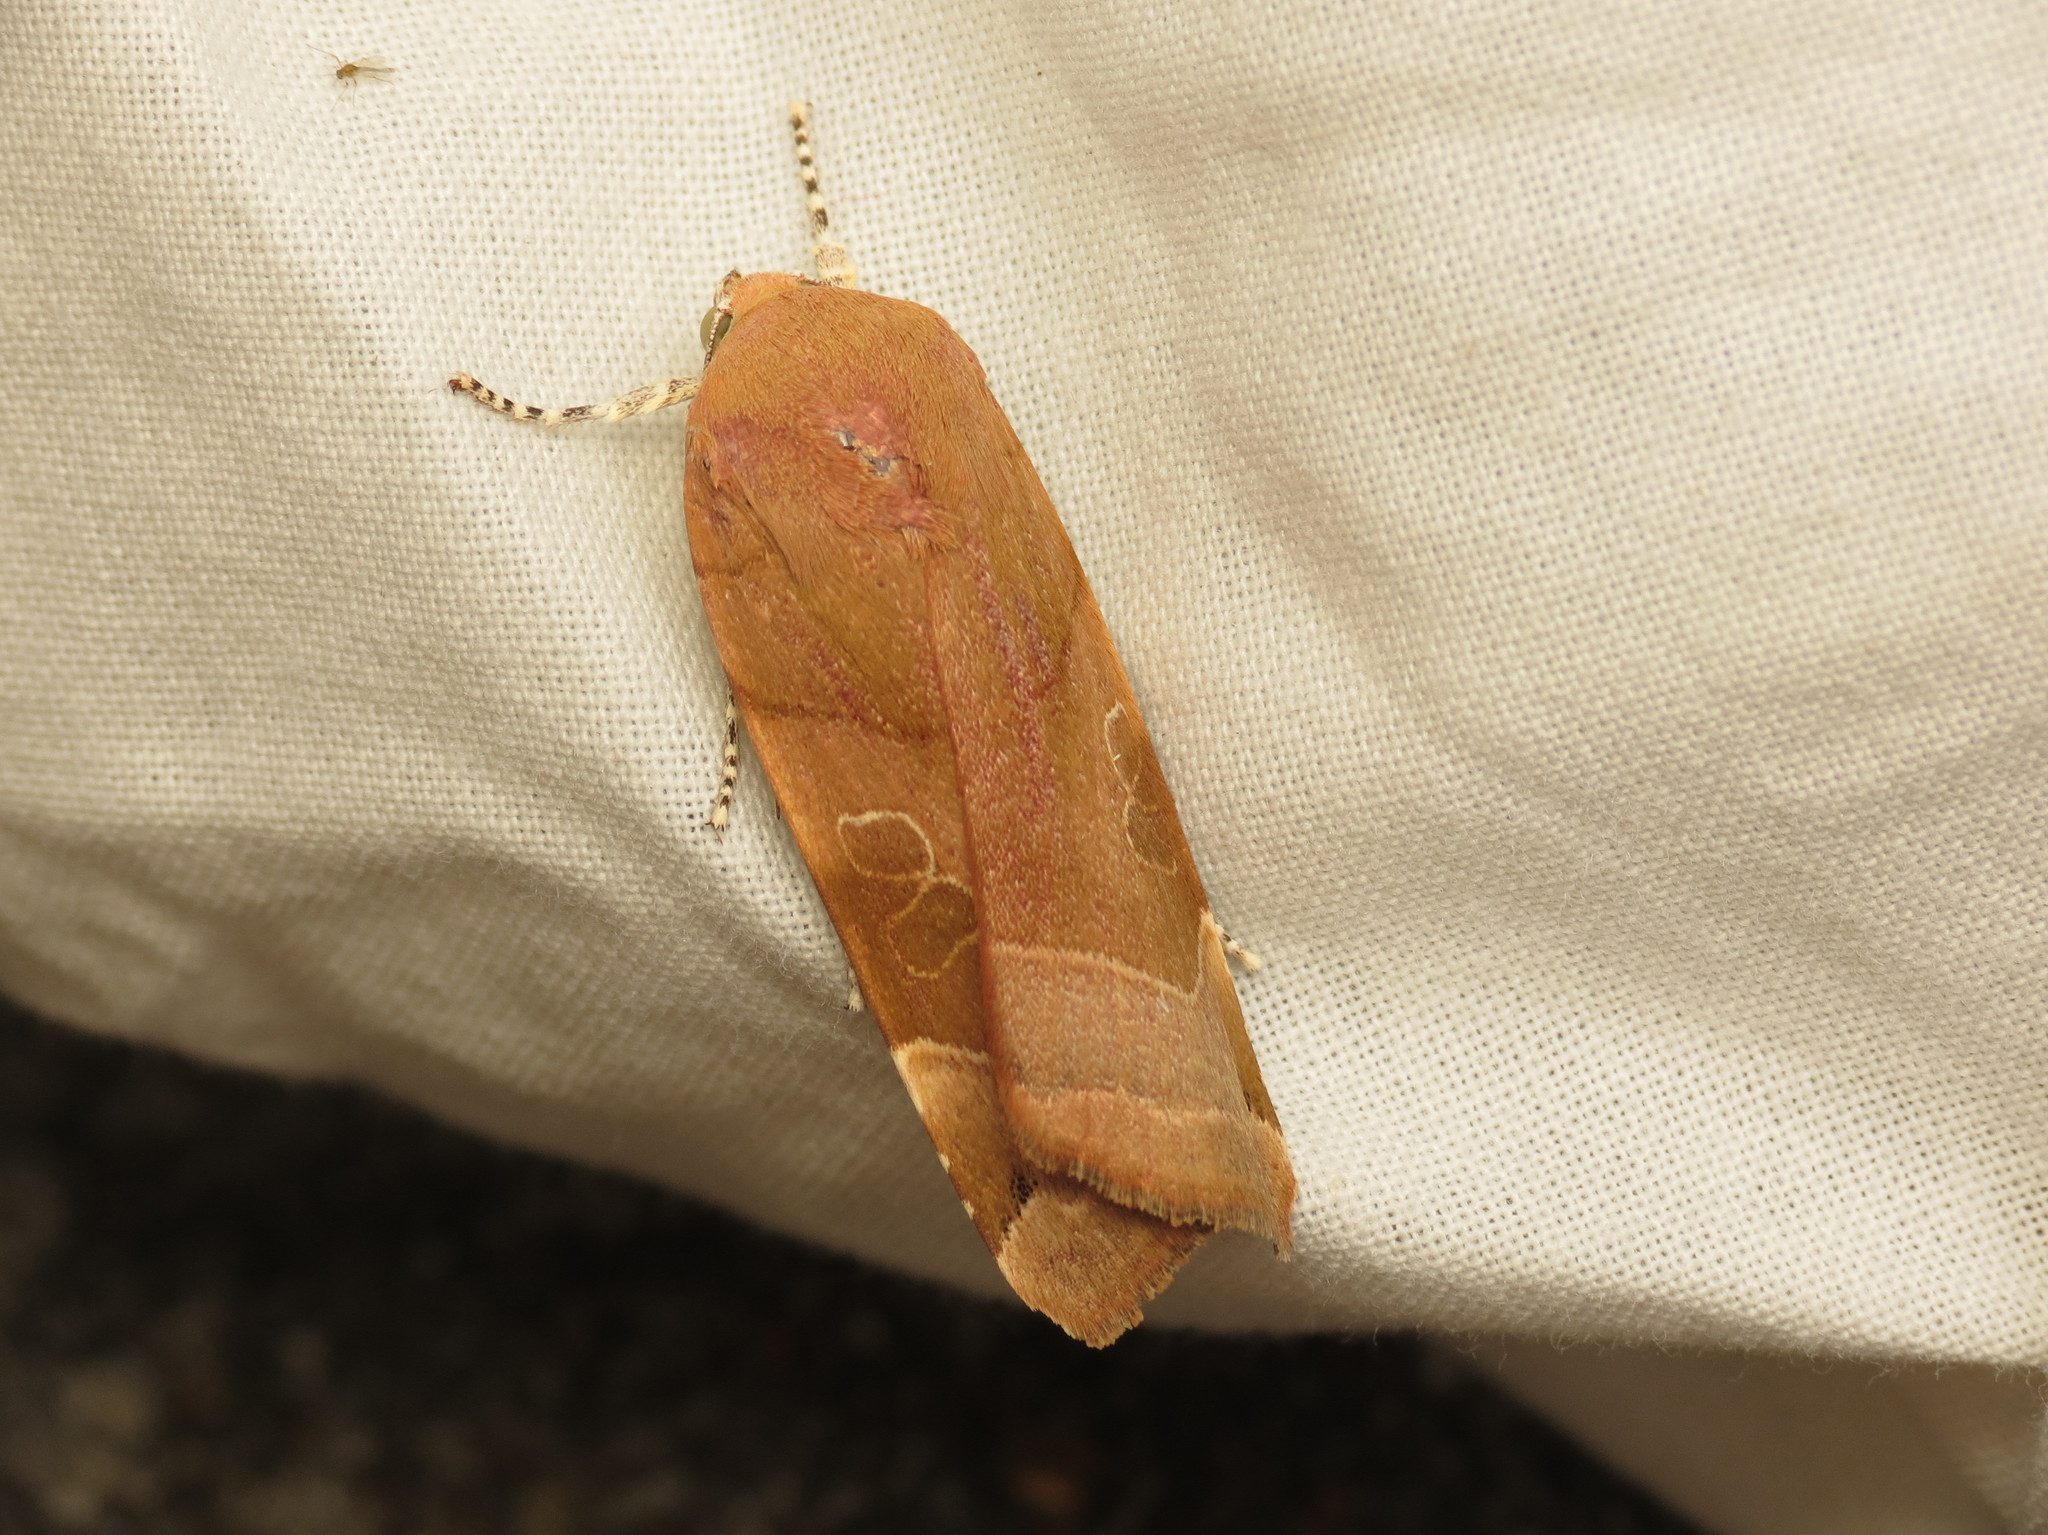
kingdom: Animalia
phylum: Arthropoda
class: Insecta
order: Lepidoptera
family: Noctuidae
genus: Noctua
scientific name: Noctua fimbriata
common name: Broad-bordered yellow underwing
